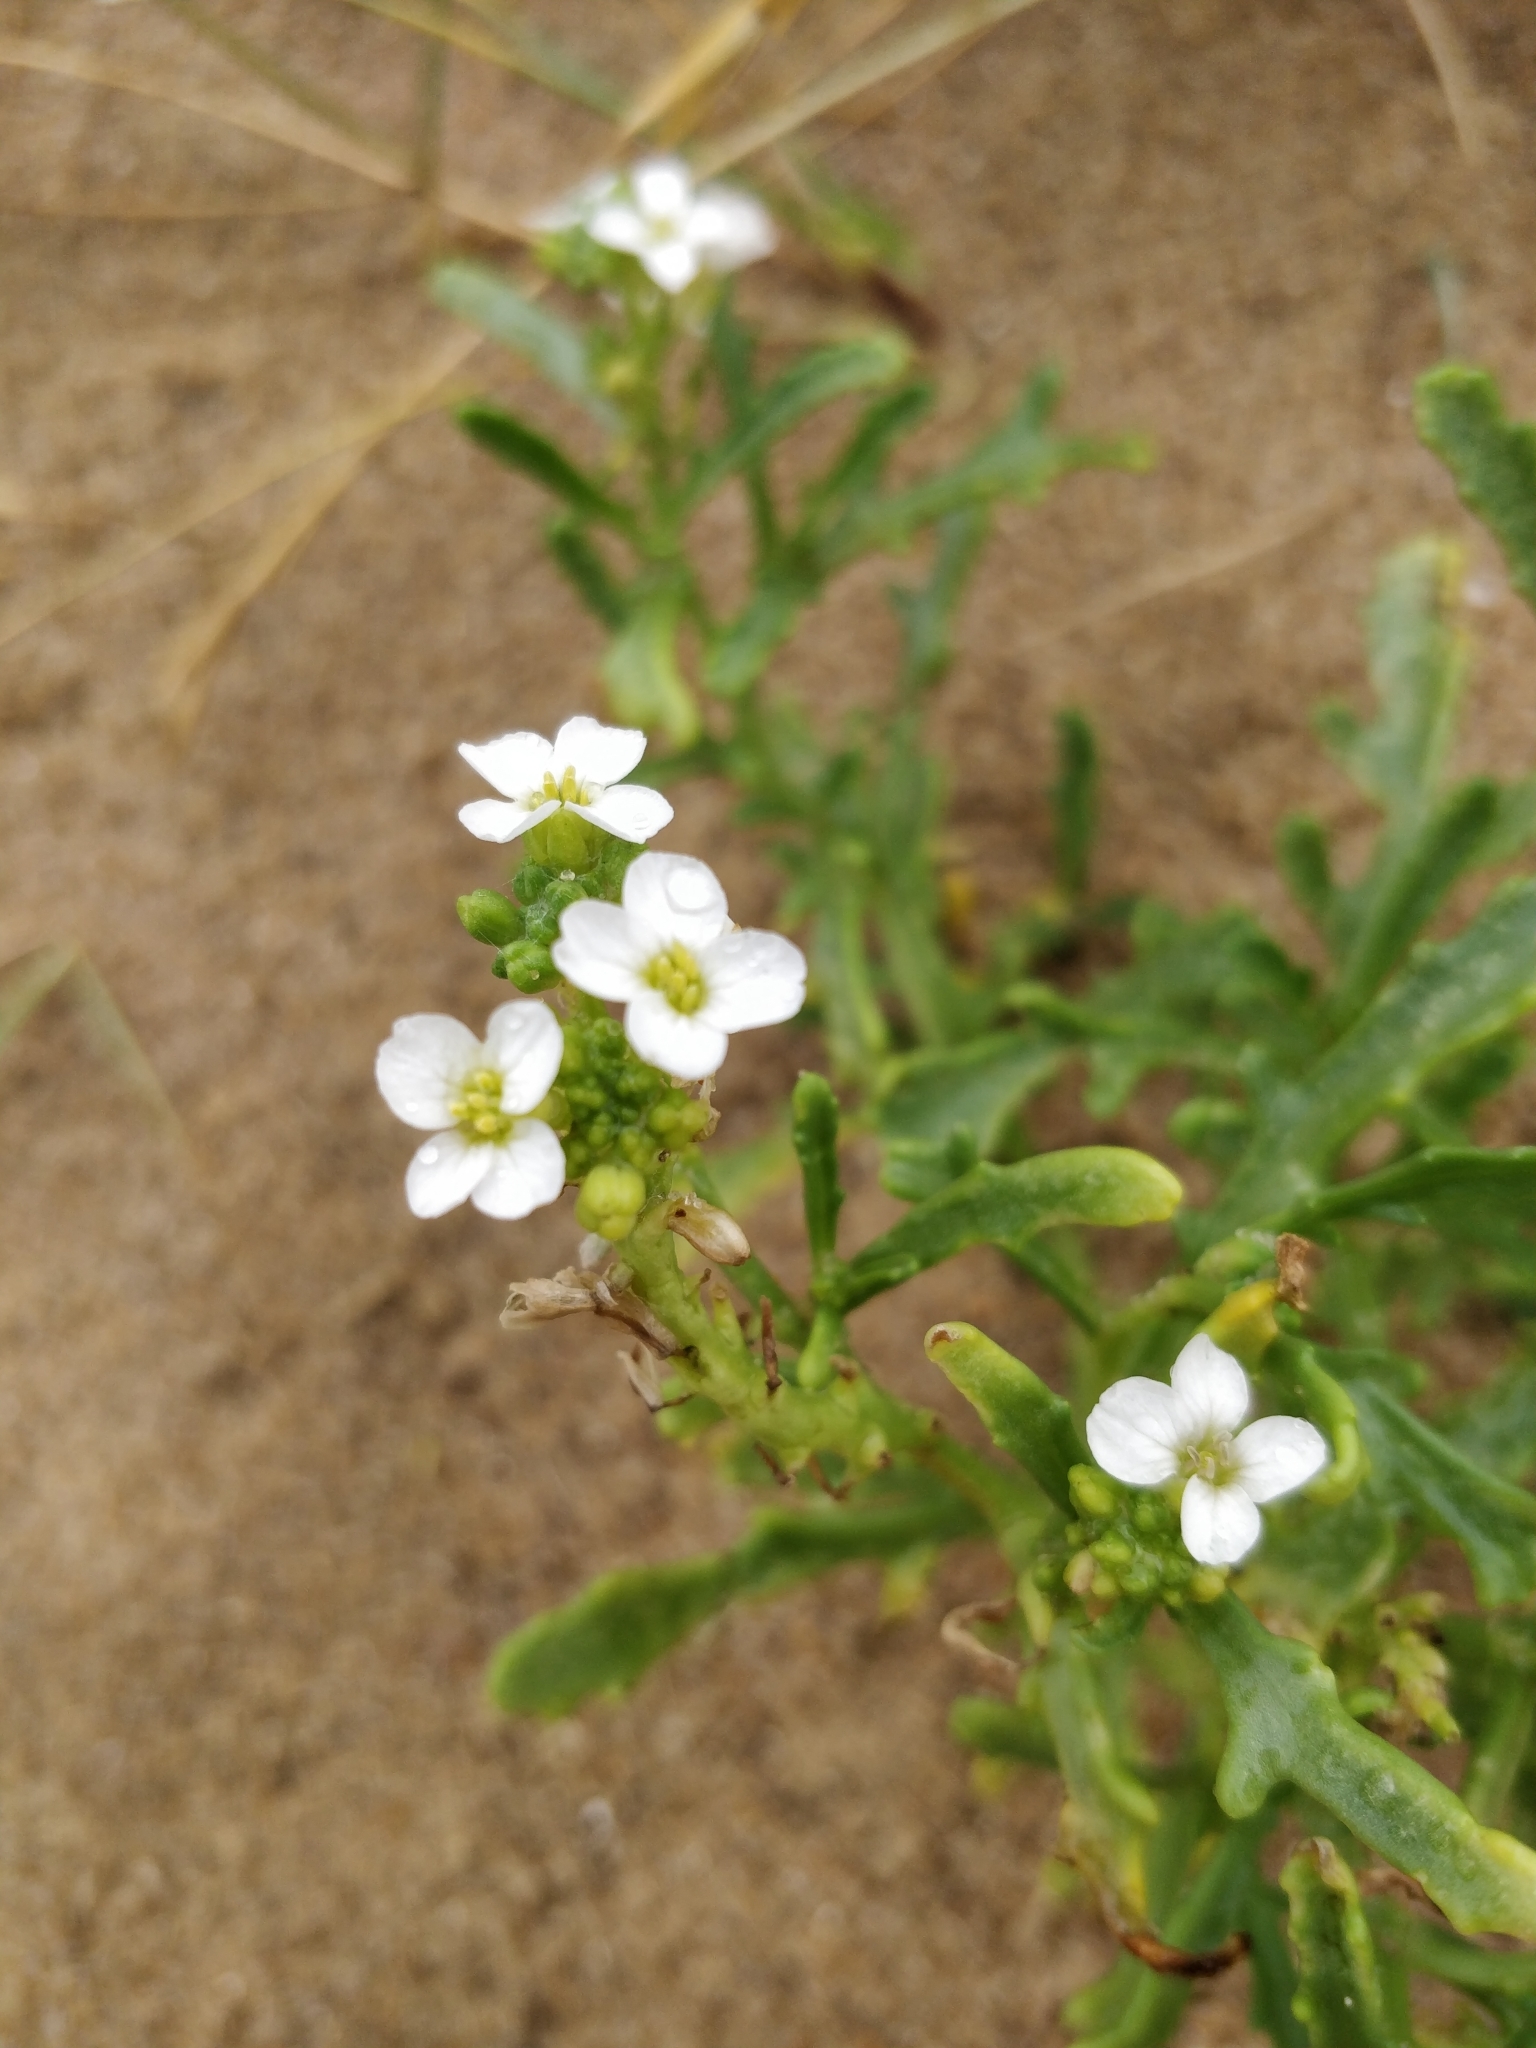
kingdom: Plantae
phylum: Tracheophyta
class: Magnoliopsida
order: Brassicales
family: Brassicaceae
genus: Cakile
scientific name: Cakile maritima
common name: Sea rocket
